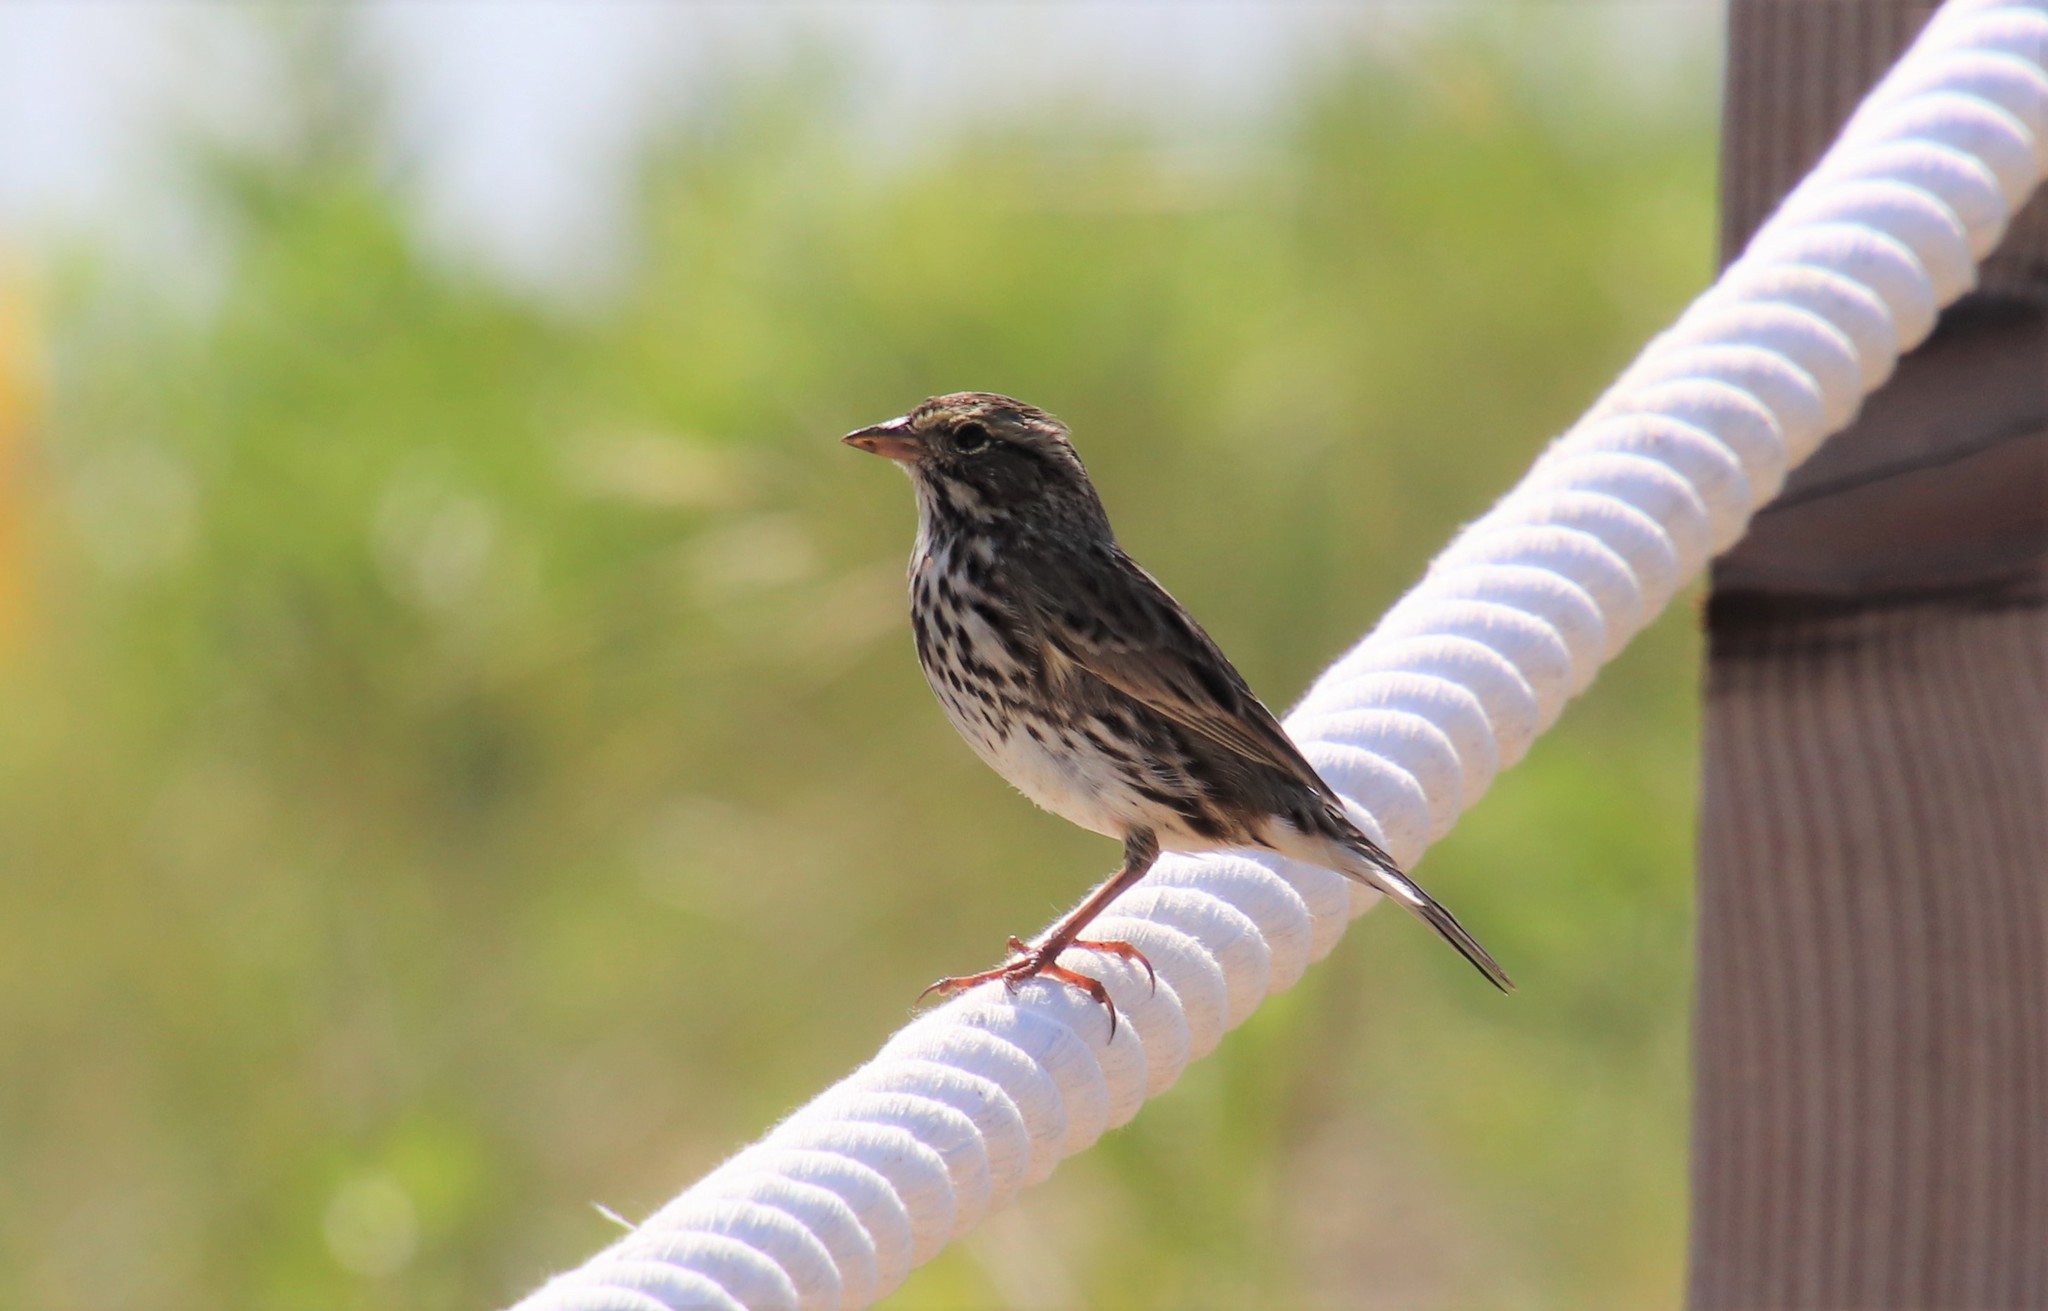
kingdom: Animalia
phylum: Chordata
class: Aves
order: Passeriformes
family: Passerellidae
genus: Passerculus
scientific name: Passerculus sandwichensis
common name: Savannah sparrow
